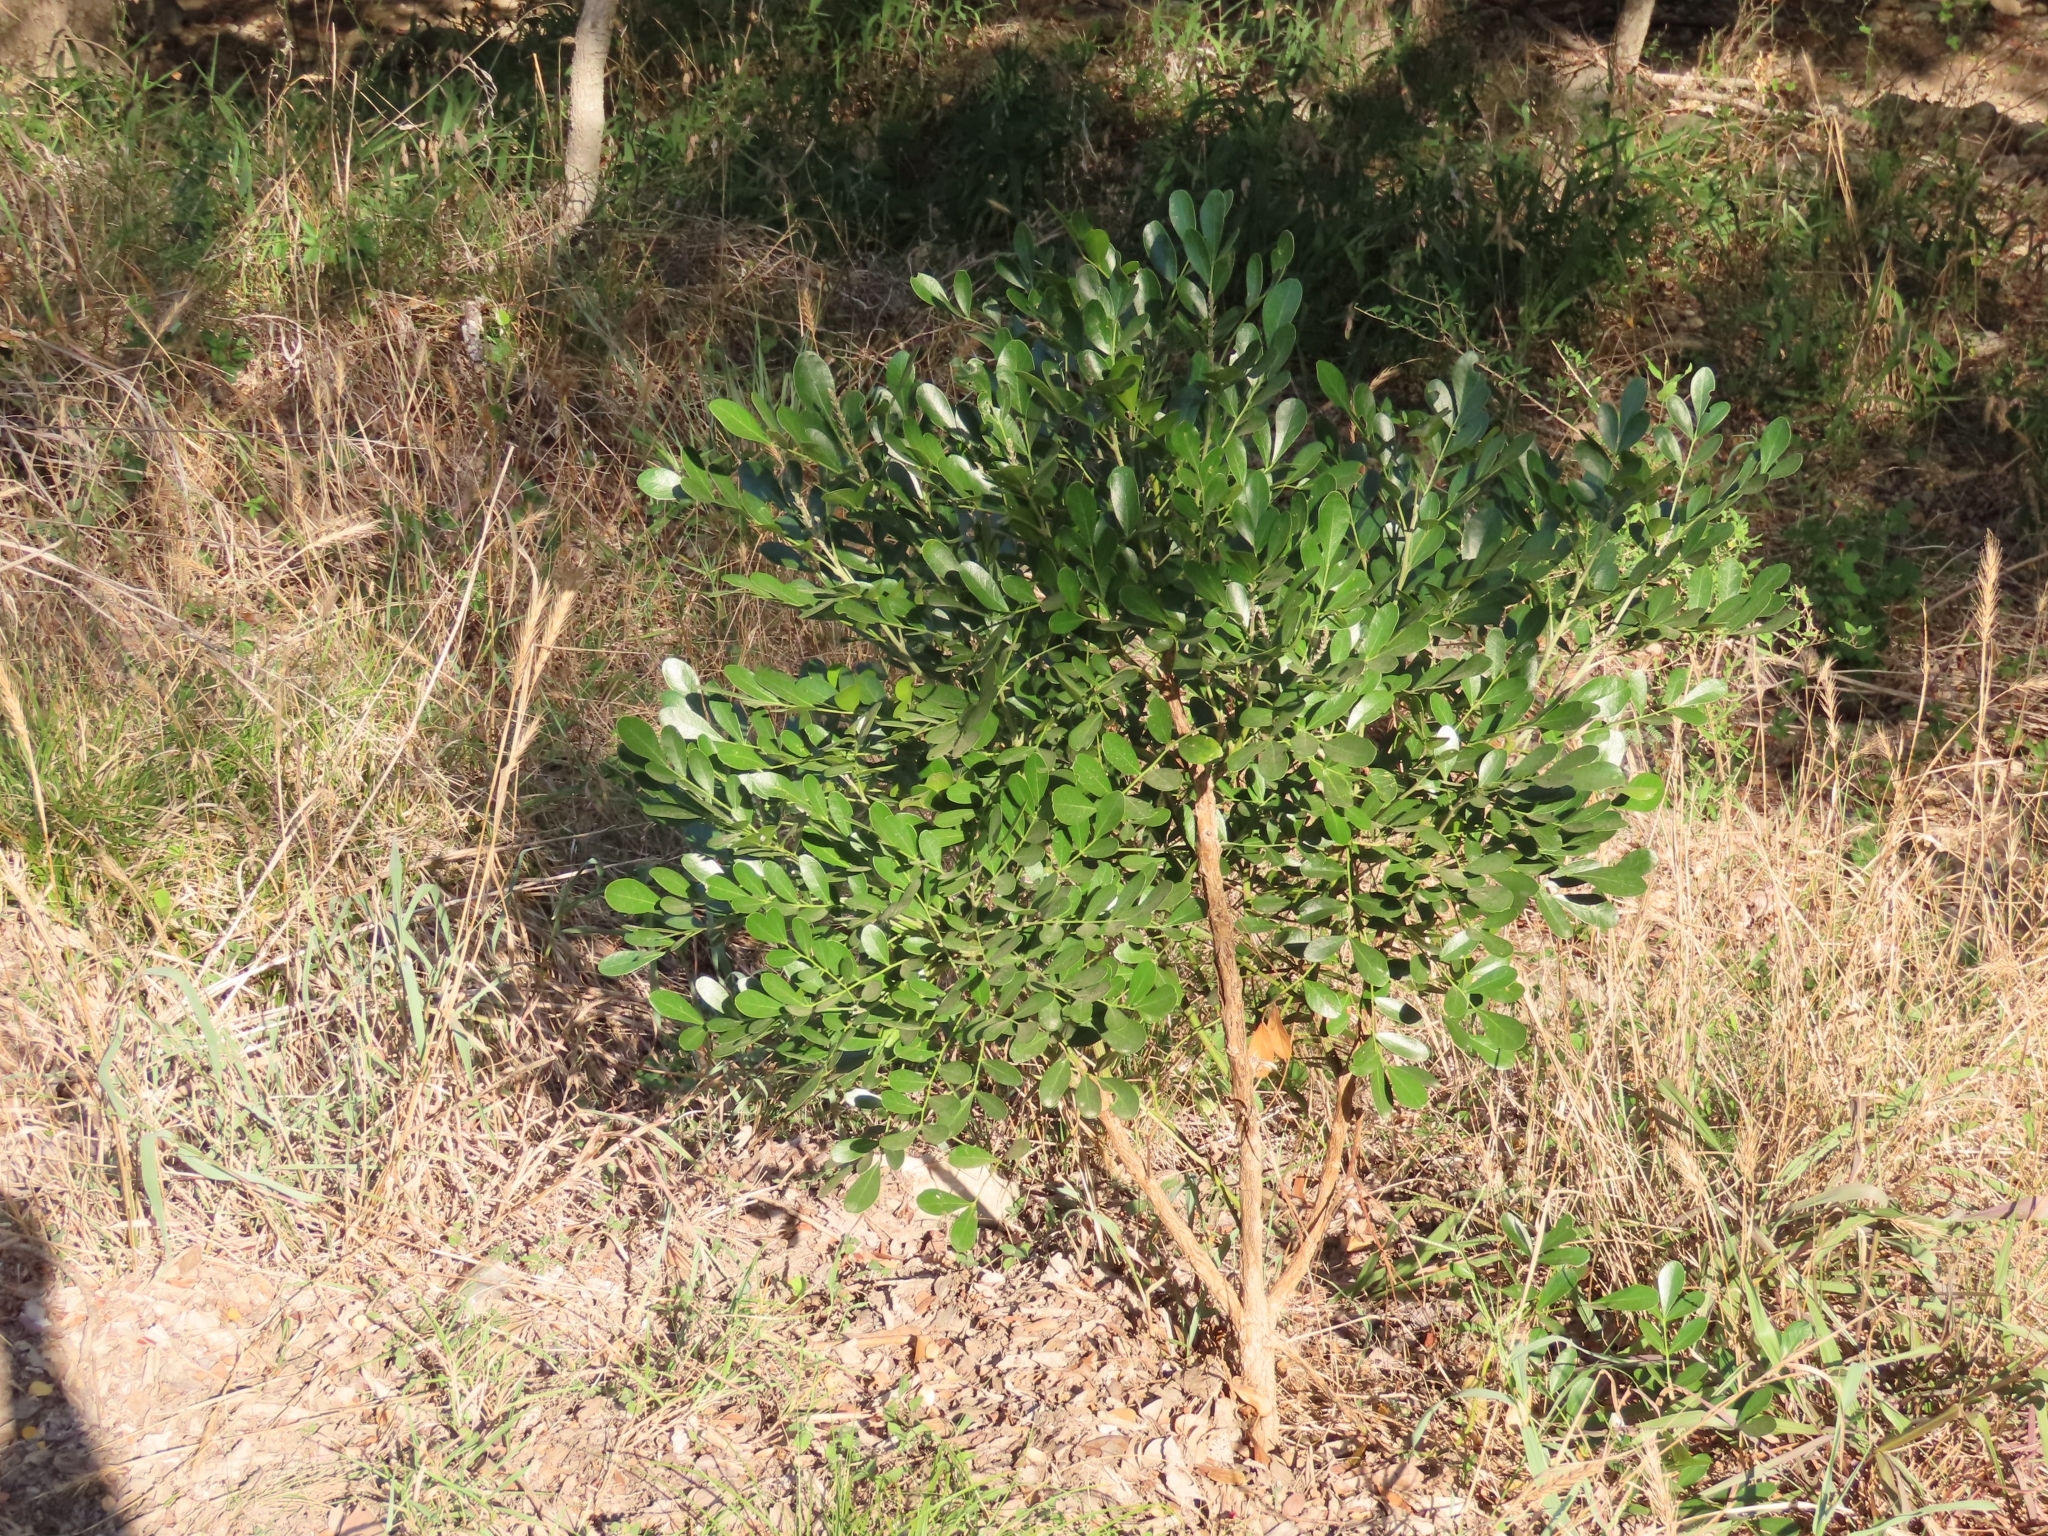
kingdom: Plantae
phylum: Tracheophyta
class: Magnoliopsida
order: Fabales
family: Fabaceae
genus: Dermatophyllum
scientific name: Dermatophyllum secundiflorum
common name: Texas-mountain-laurel
